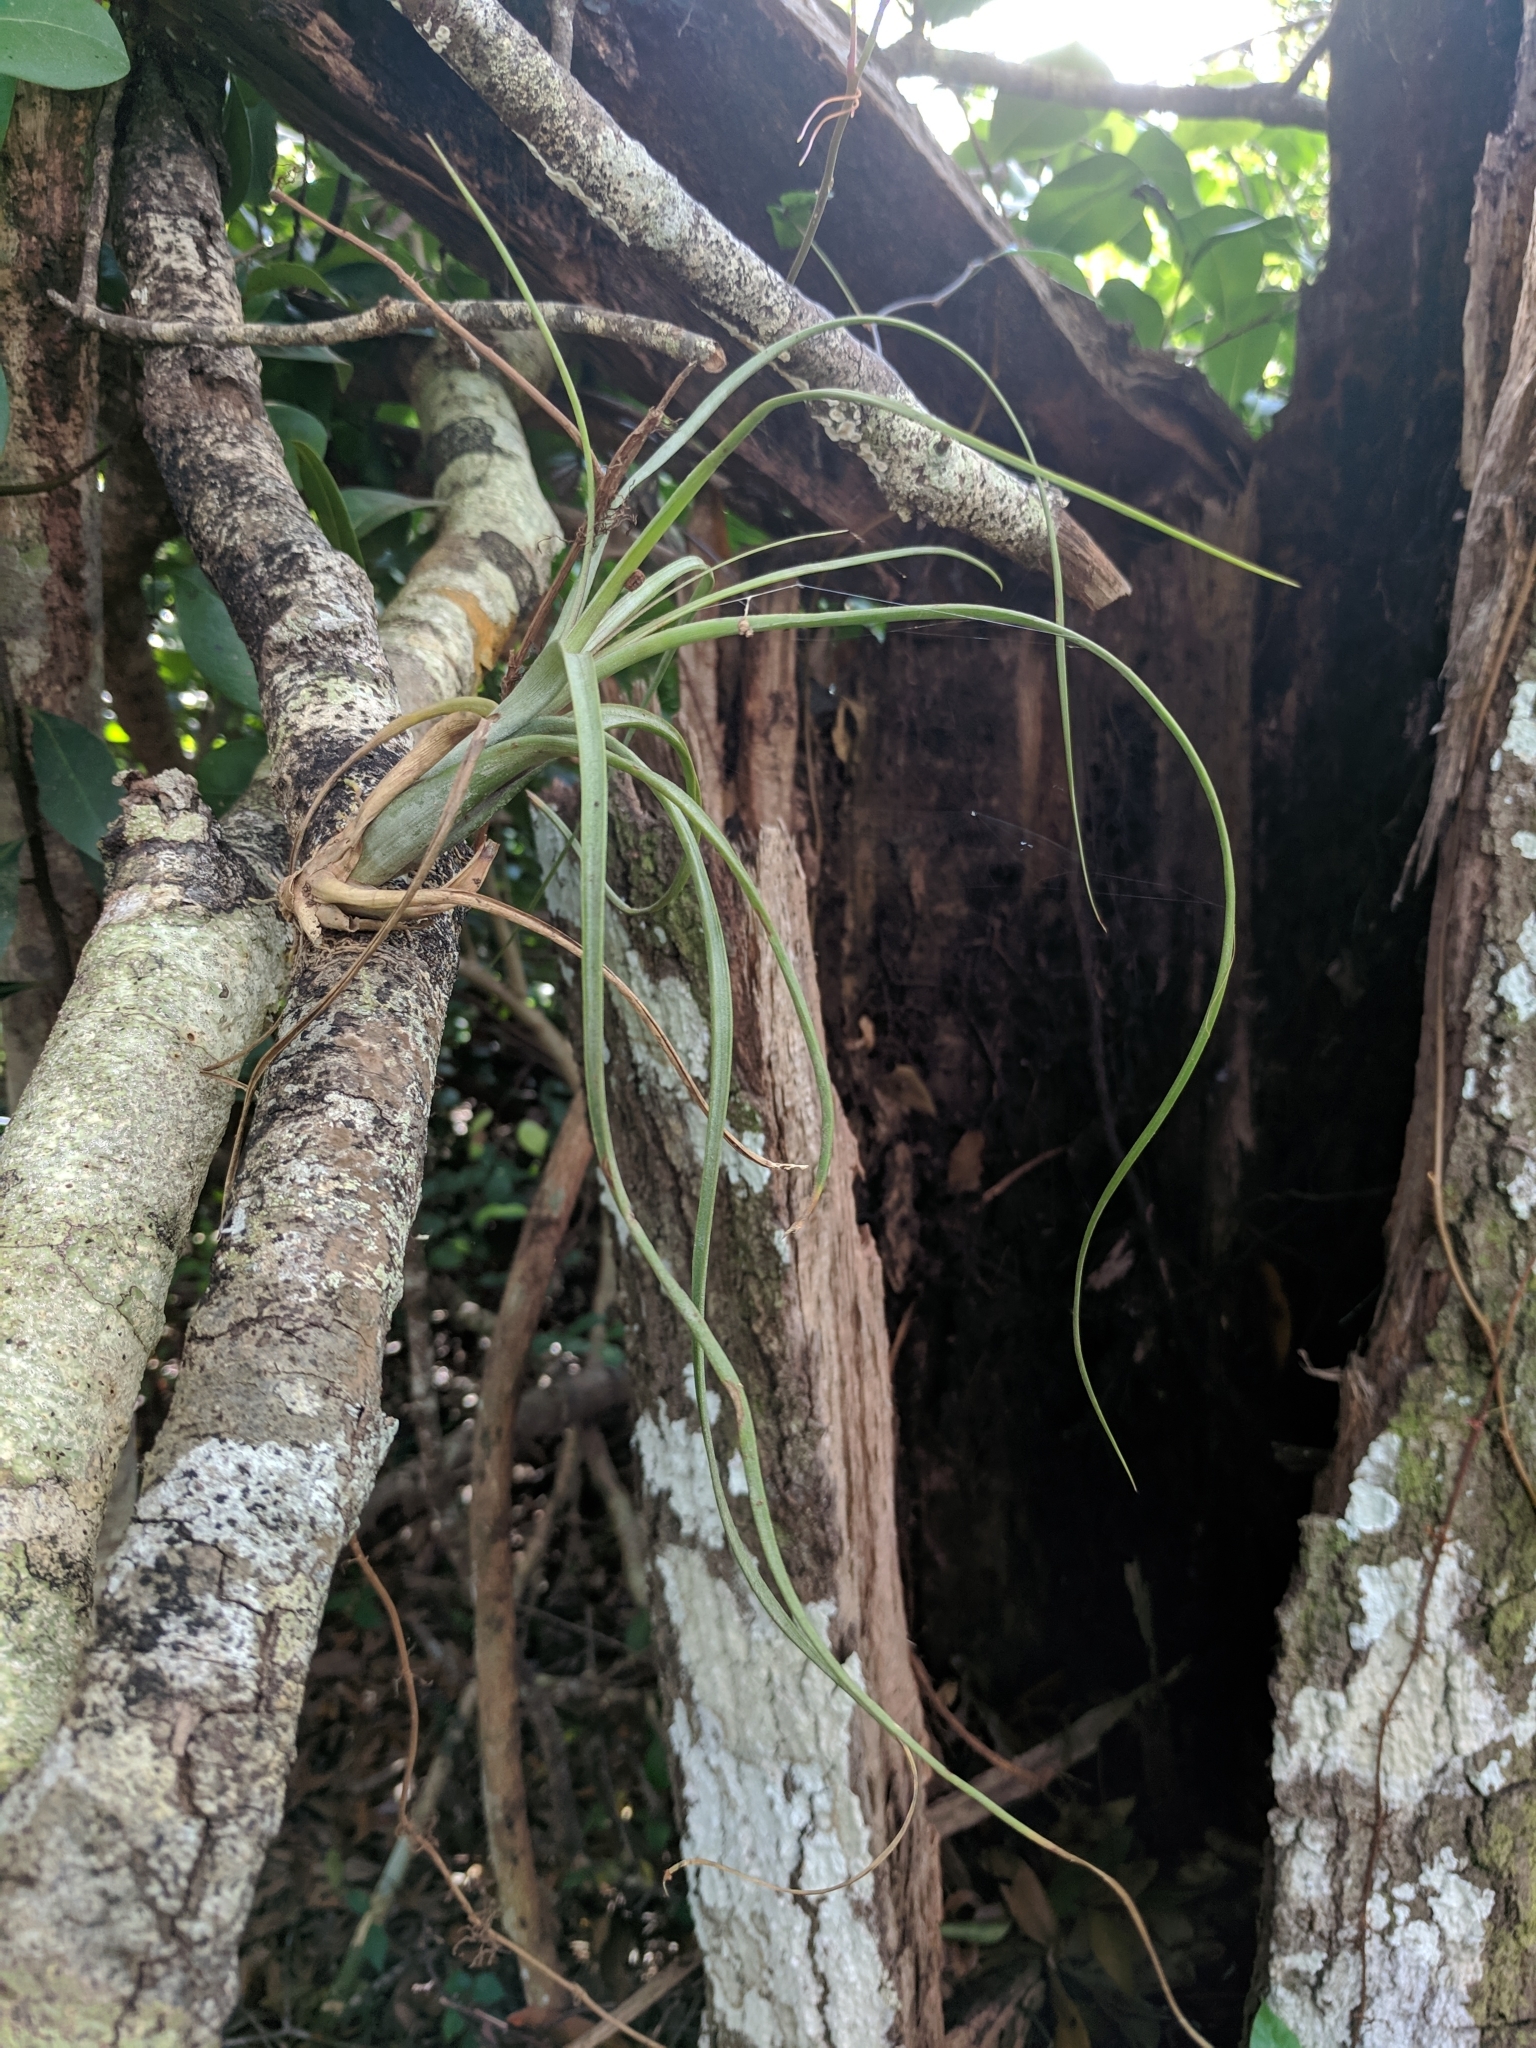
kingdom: Plantae
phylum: Tracheophyta
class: Liliopsida
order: Poales
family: Bromeliaceae
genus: Tillandsia
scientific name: Tillandsia balbisiana
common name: Northern needleleaf
